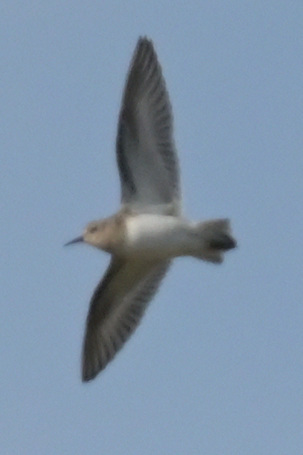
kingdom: Animalia
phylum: Chordata
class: Aves
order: Charadriiformes
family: Scolopacidae
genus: Calidris
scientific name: Calidris minutilla
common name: Least sandpiper
